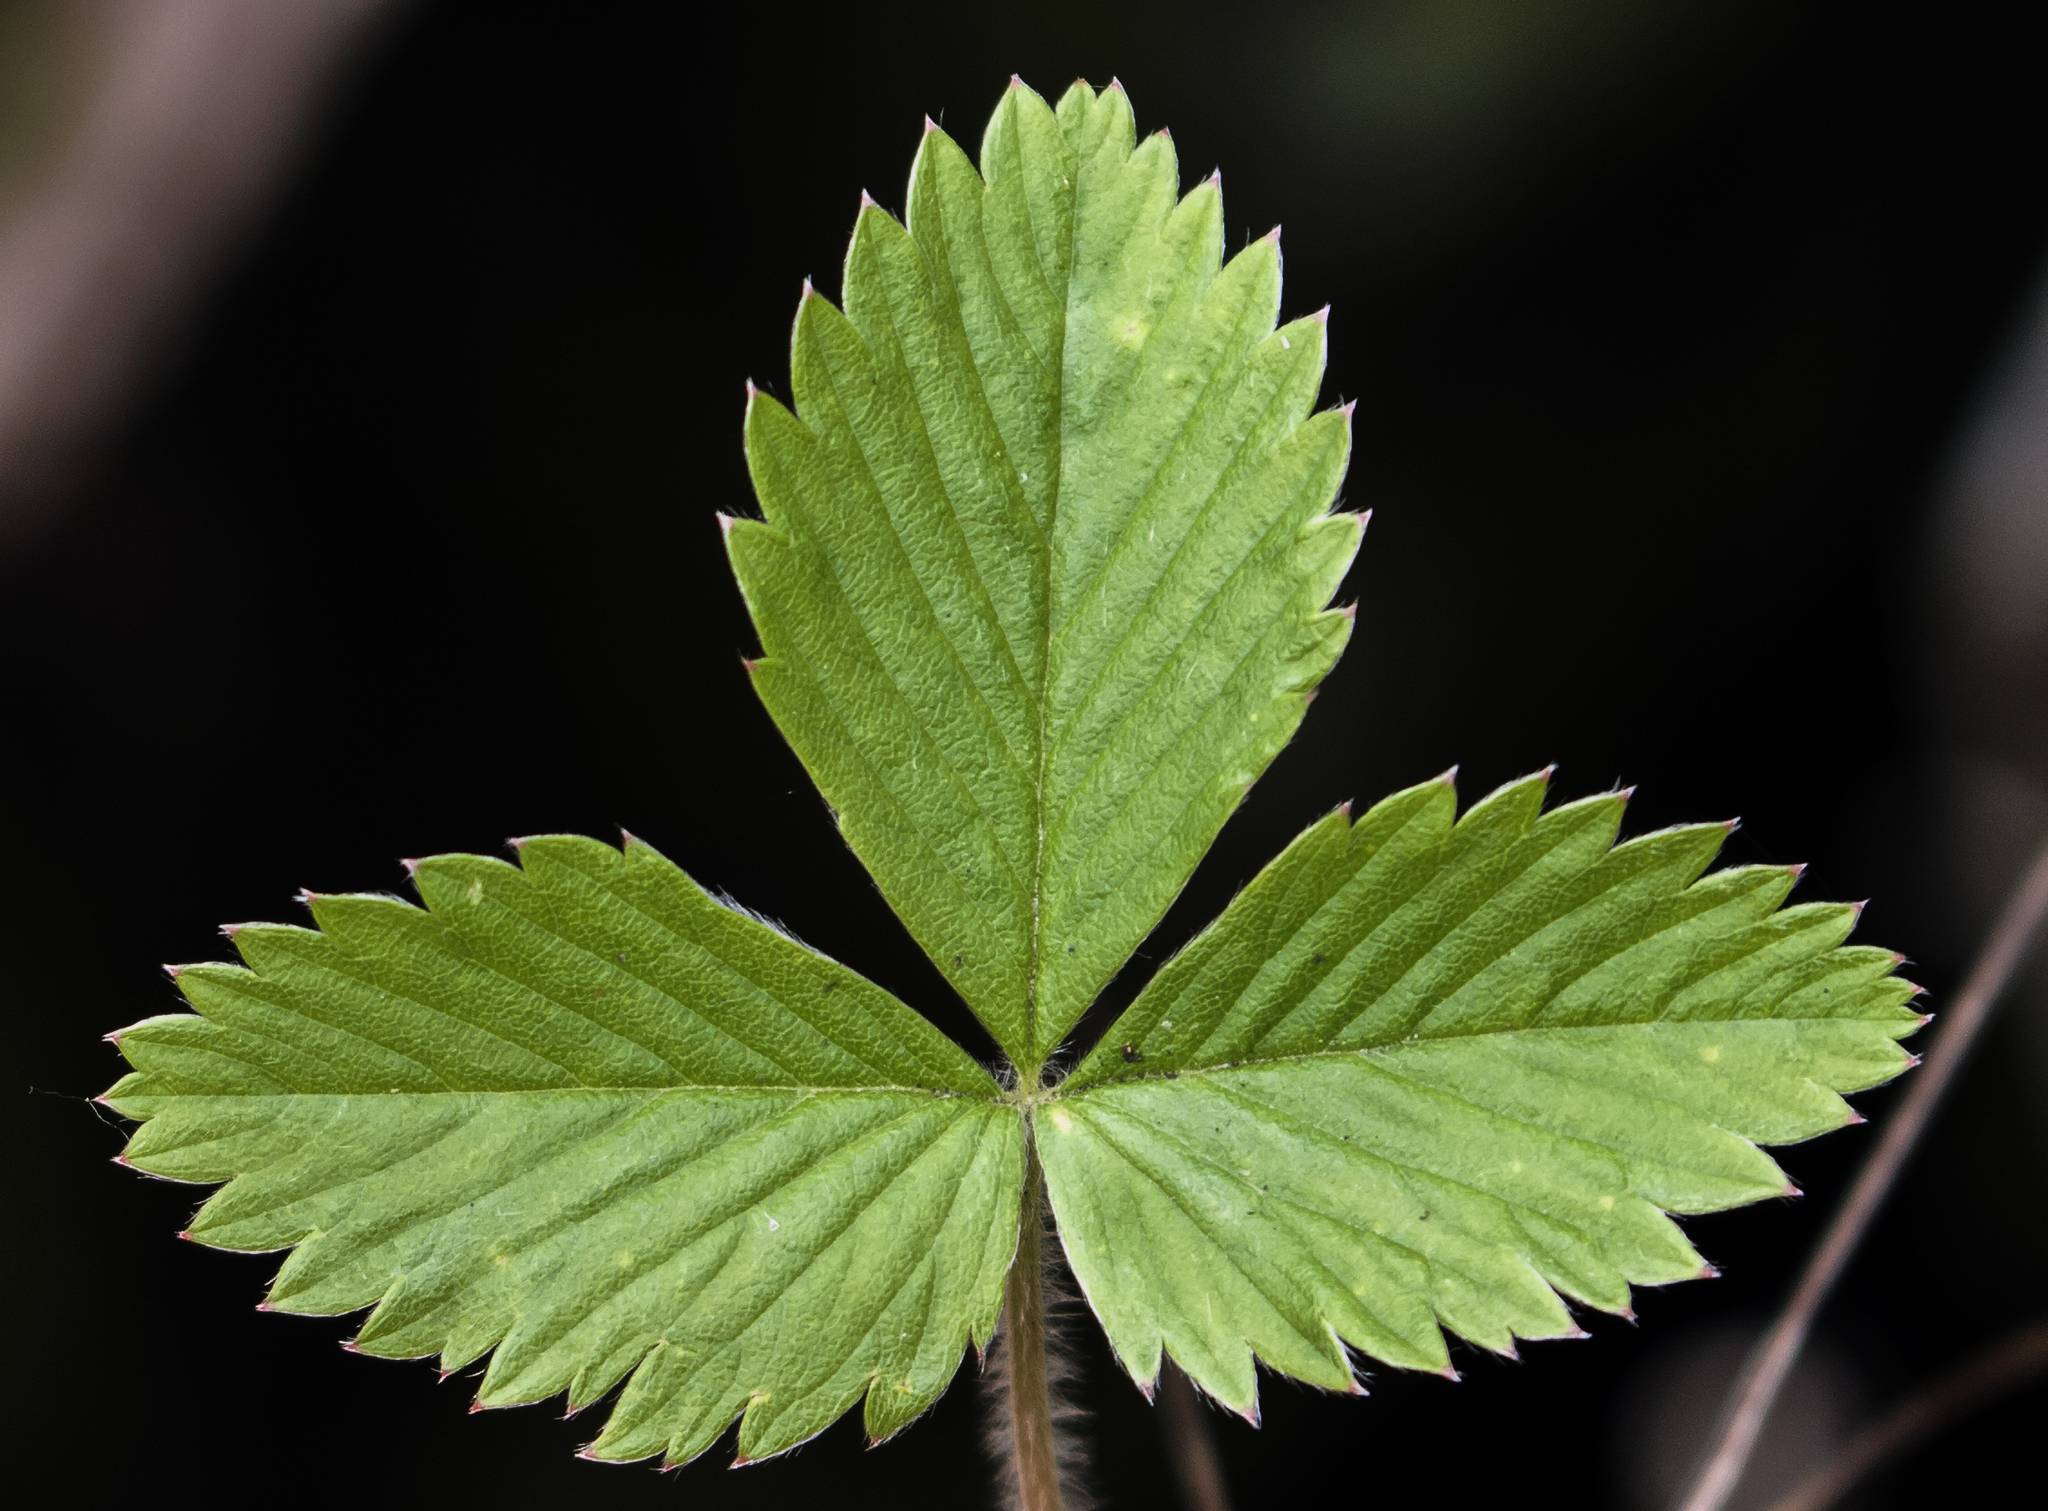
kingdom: Plantae
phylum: Tracheophyta
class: Magnoliopsida
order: Rosales
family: Rosaceae
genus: Fragaria
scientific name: Fragaria vesca
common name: Wild strawberry
